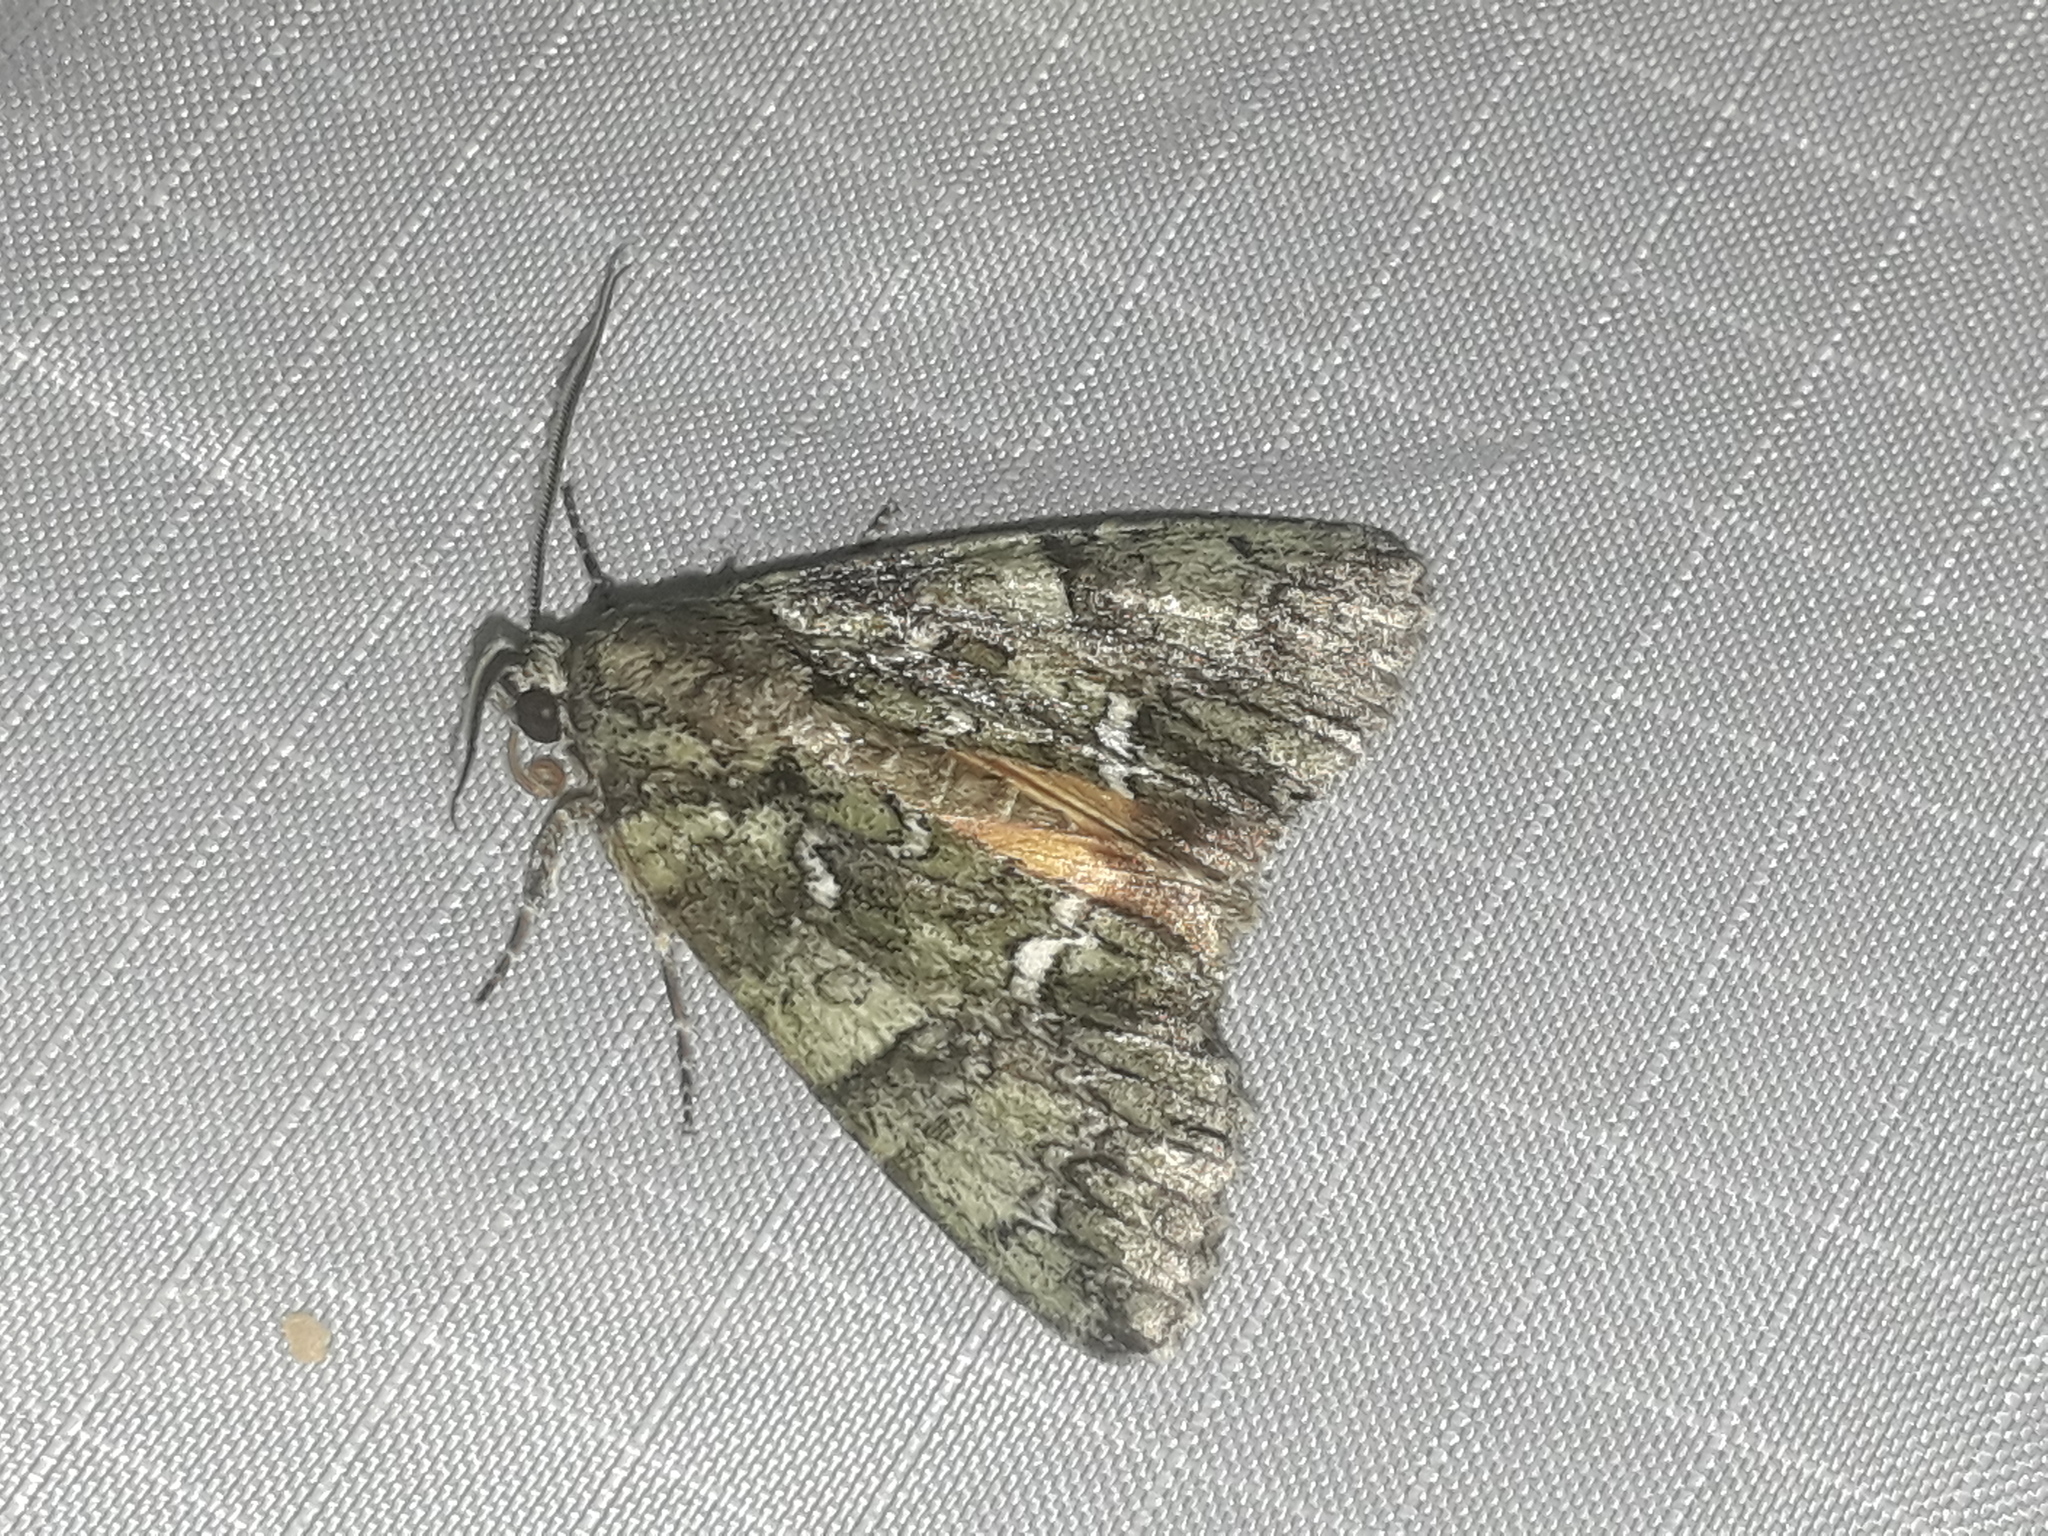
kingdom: Animalia
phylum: Arthropoda
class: Insecta
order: Lepidoptera
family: Noctuidae
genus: Polyphaenis
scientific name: Polyphaenis sericata
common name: Guernsey underwing
